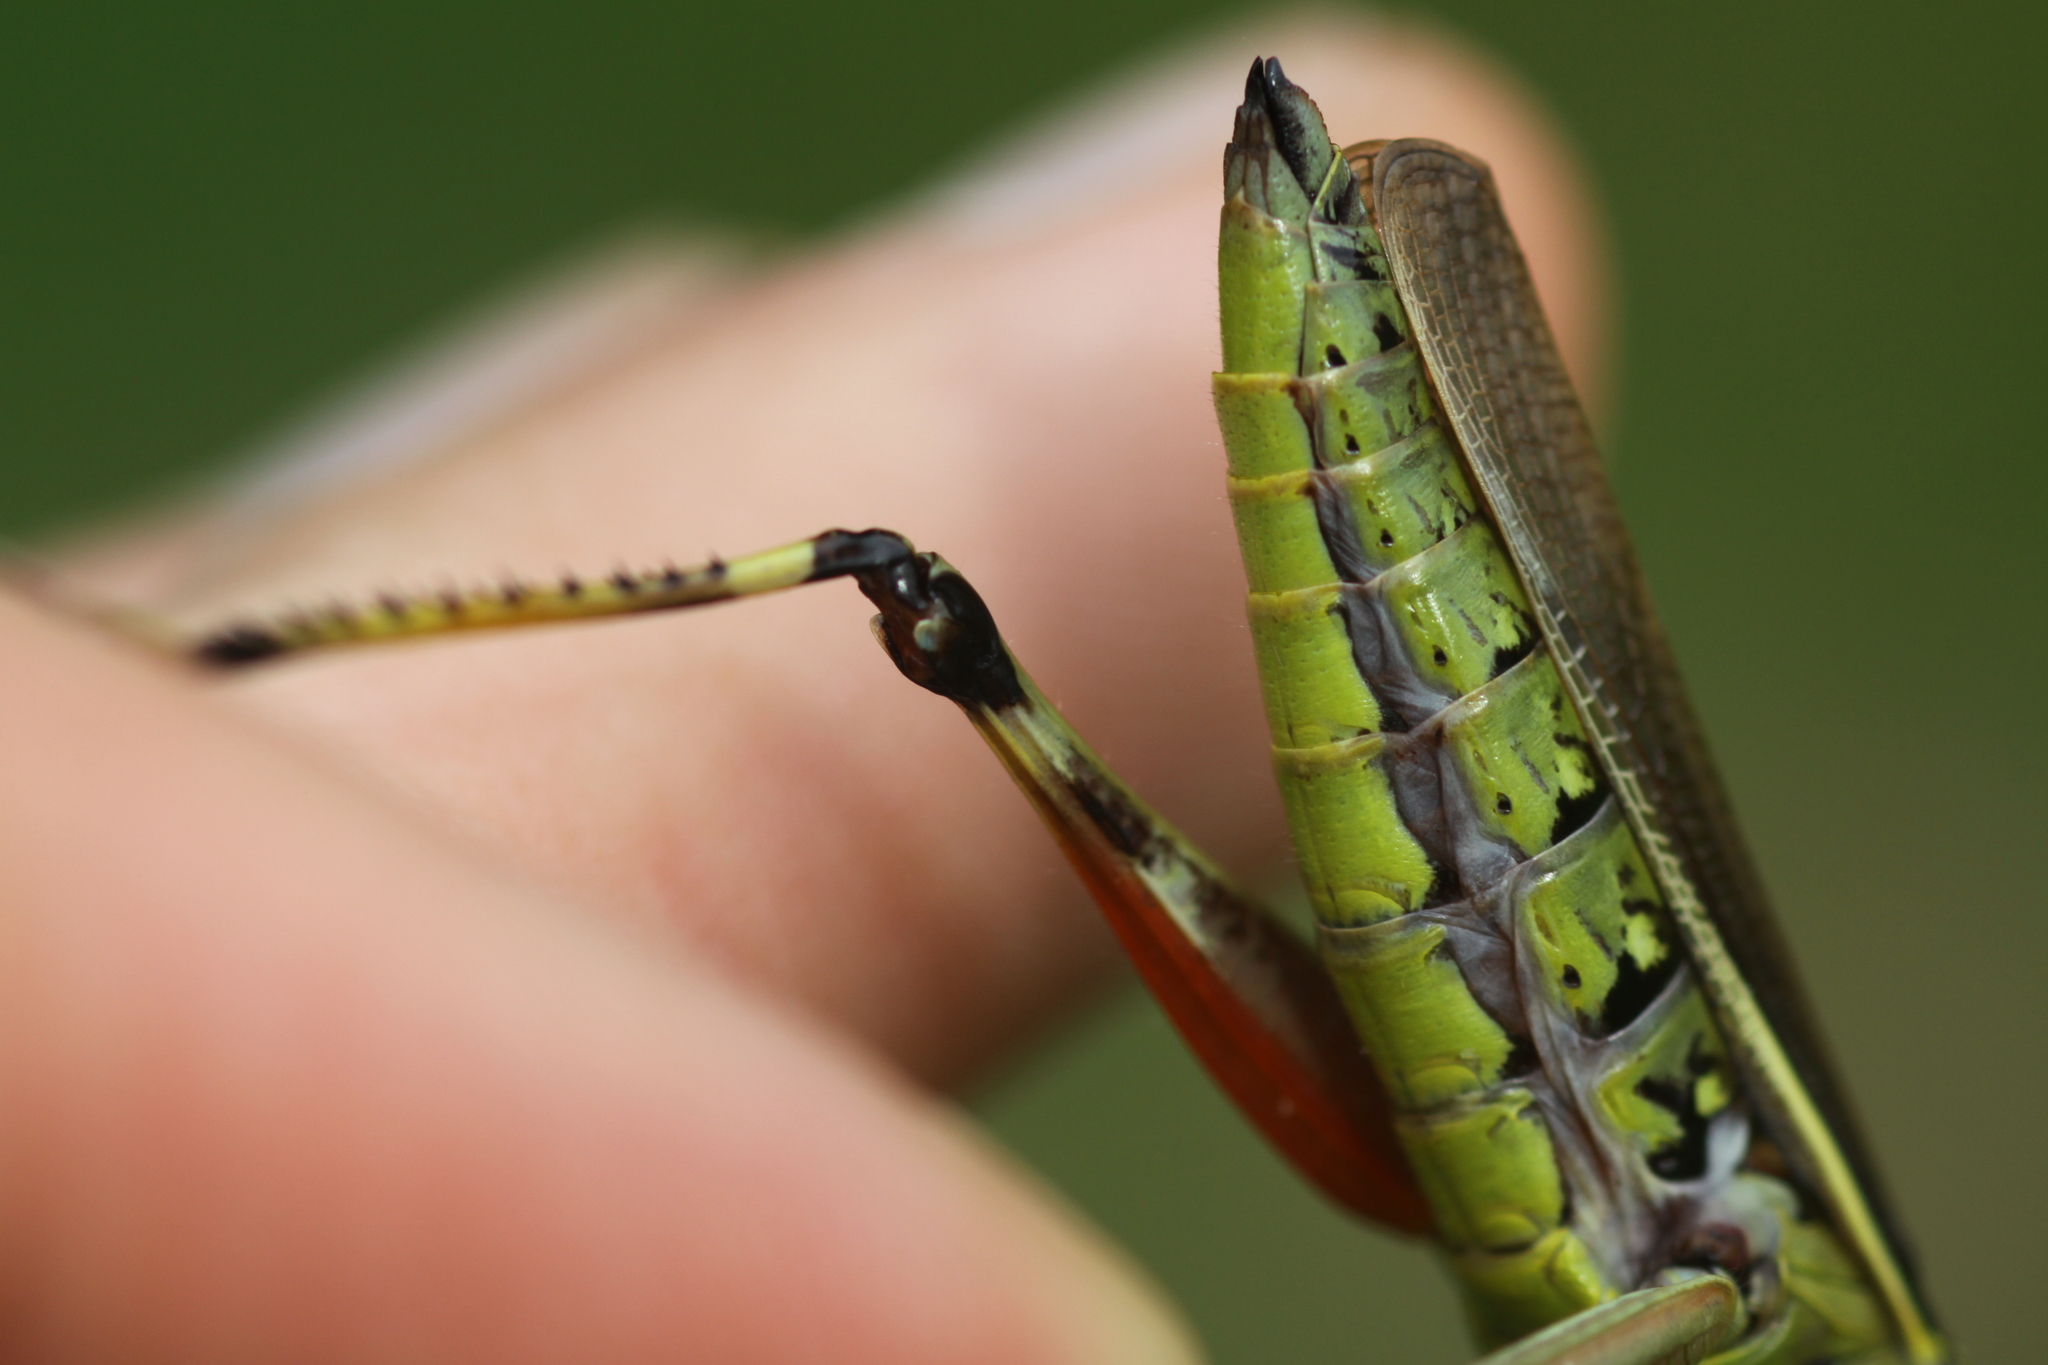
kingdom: Animalia
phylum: Arthropoda
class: Insecta
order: Orthoptera
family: Acrididae
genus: Stethophyma
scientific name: Stethophyma grossum
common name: Large marsh grasshopper
